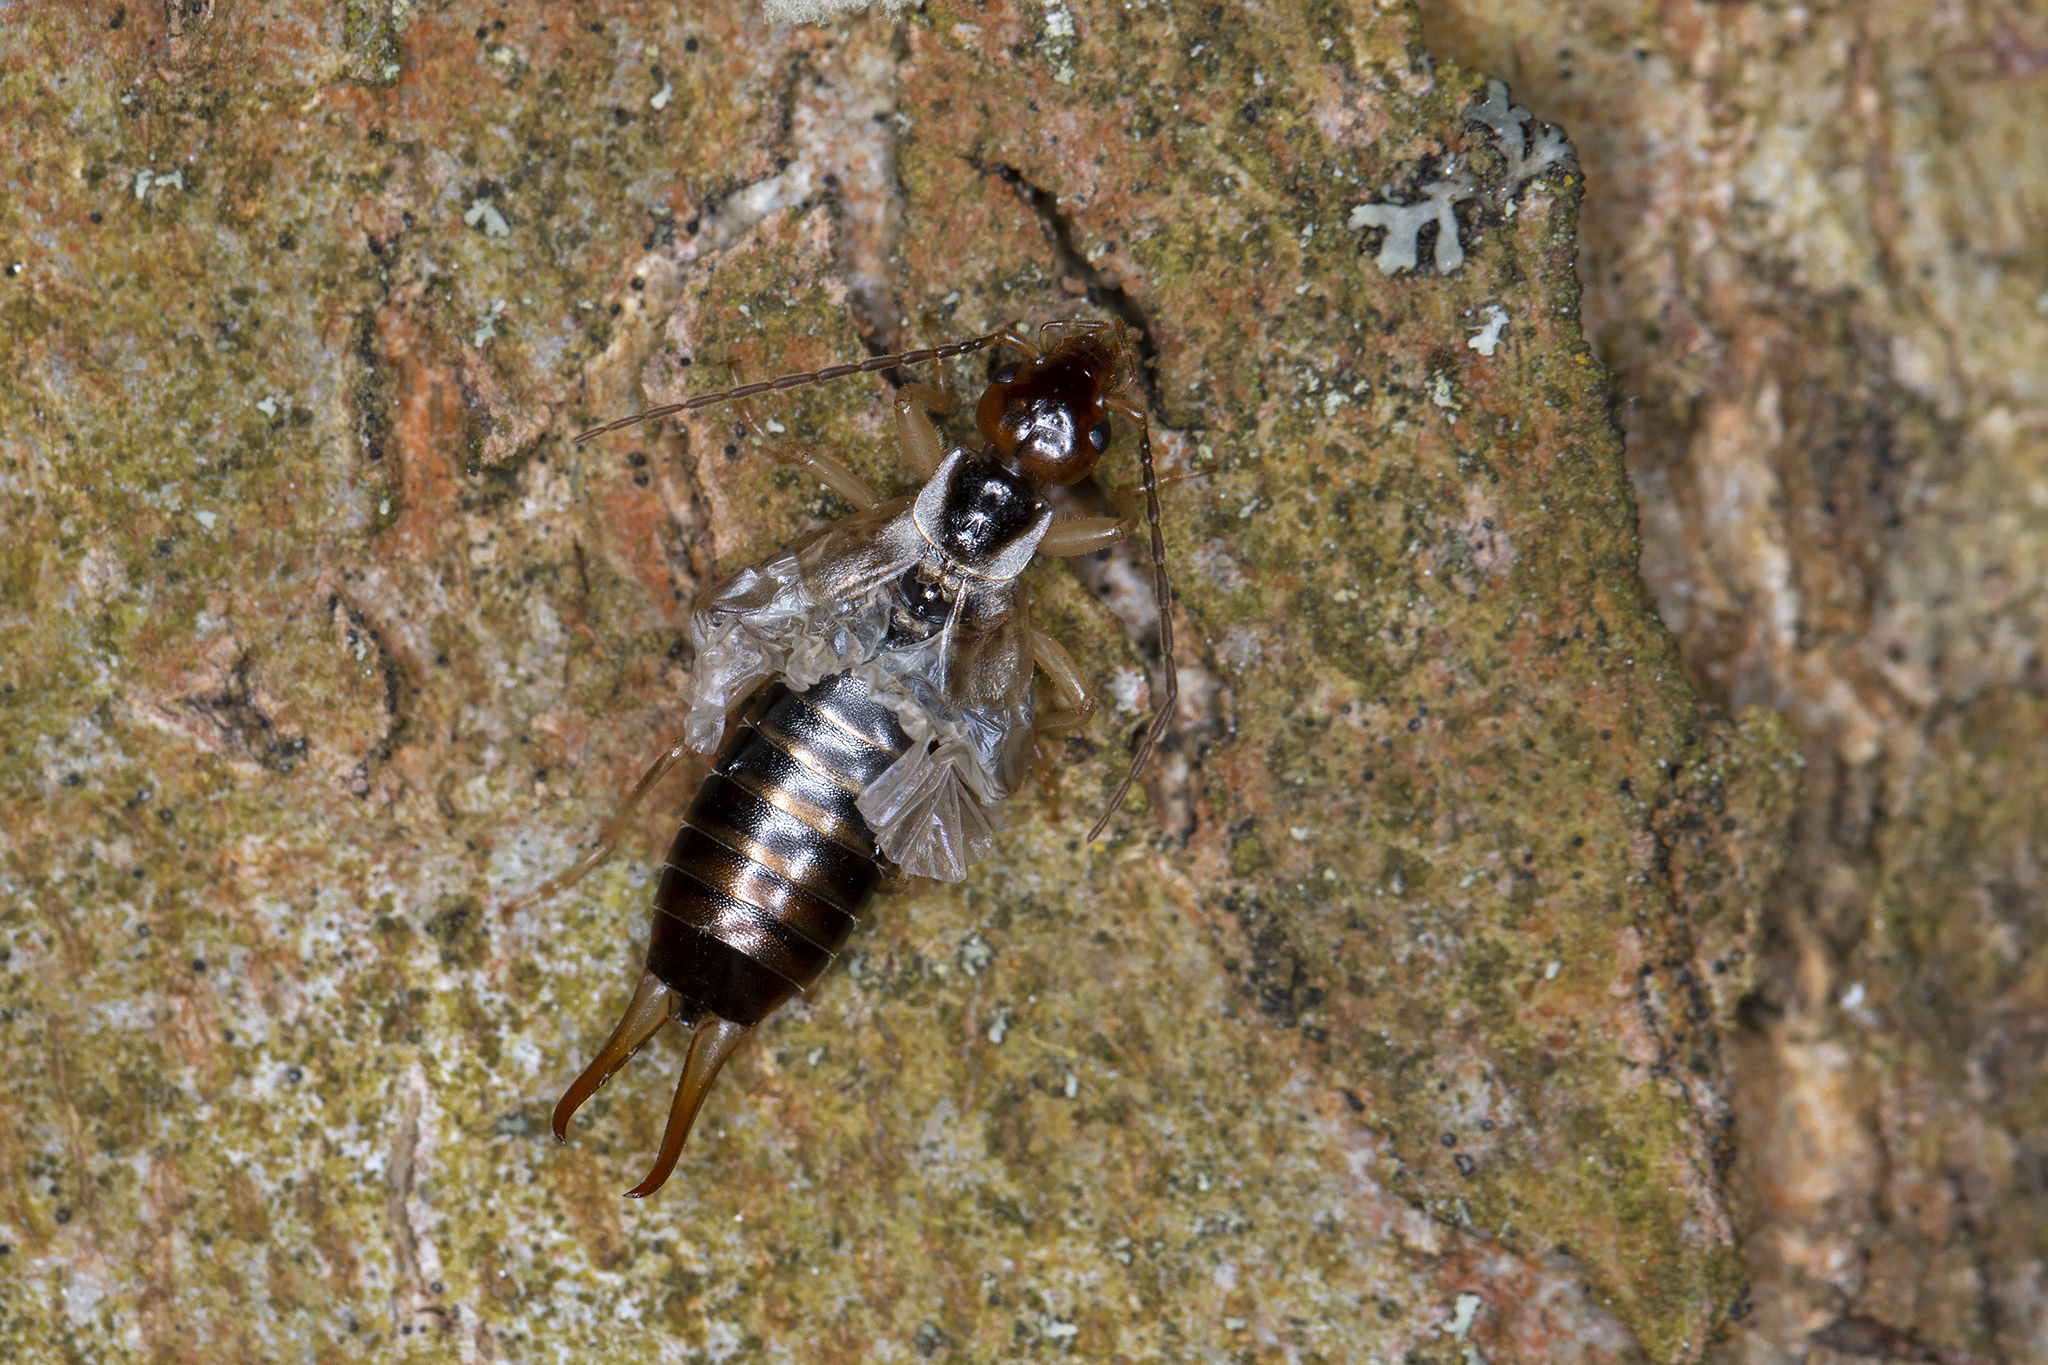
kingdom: Animalia
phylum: Arthropoda
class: Insecta
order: Dermaptera
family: Forficulidae
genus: Forficula
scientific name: Forficula
